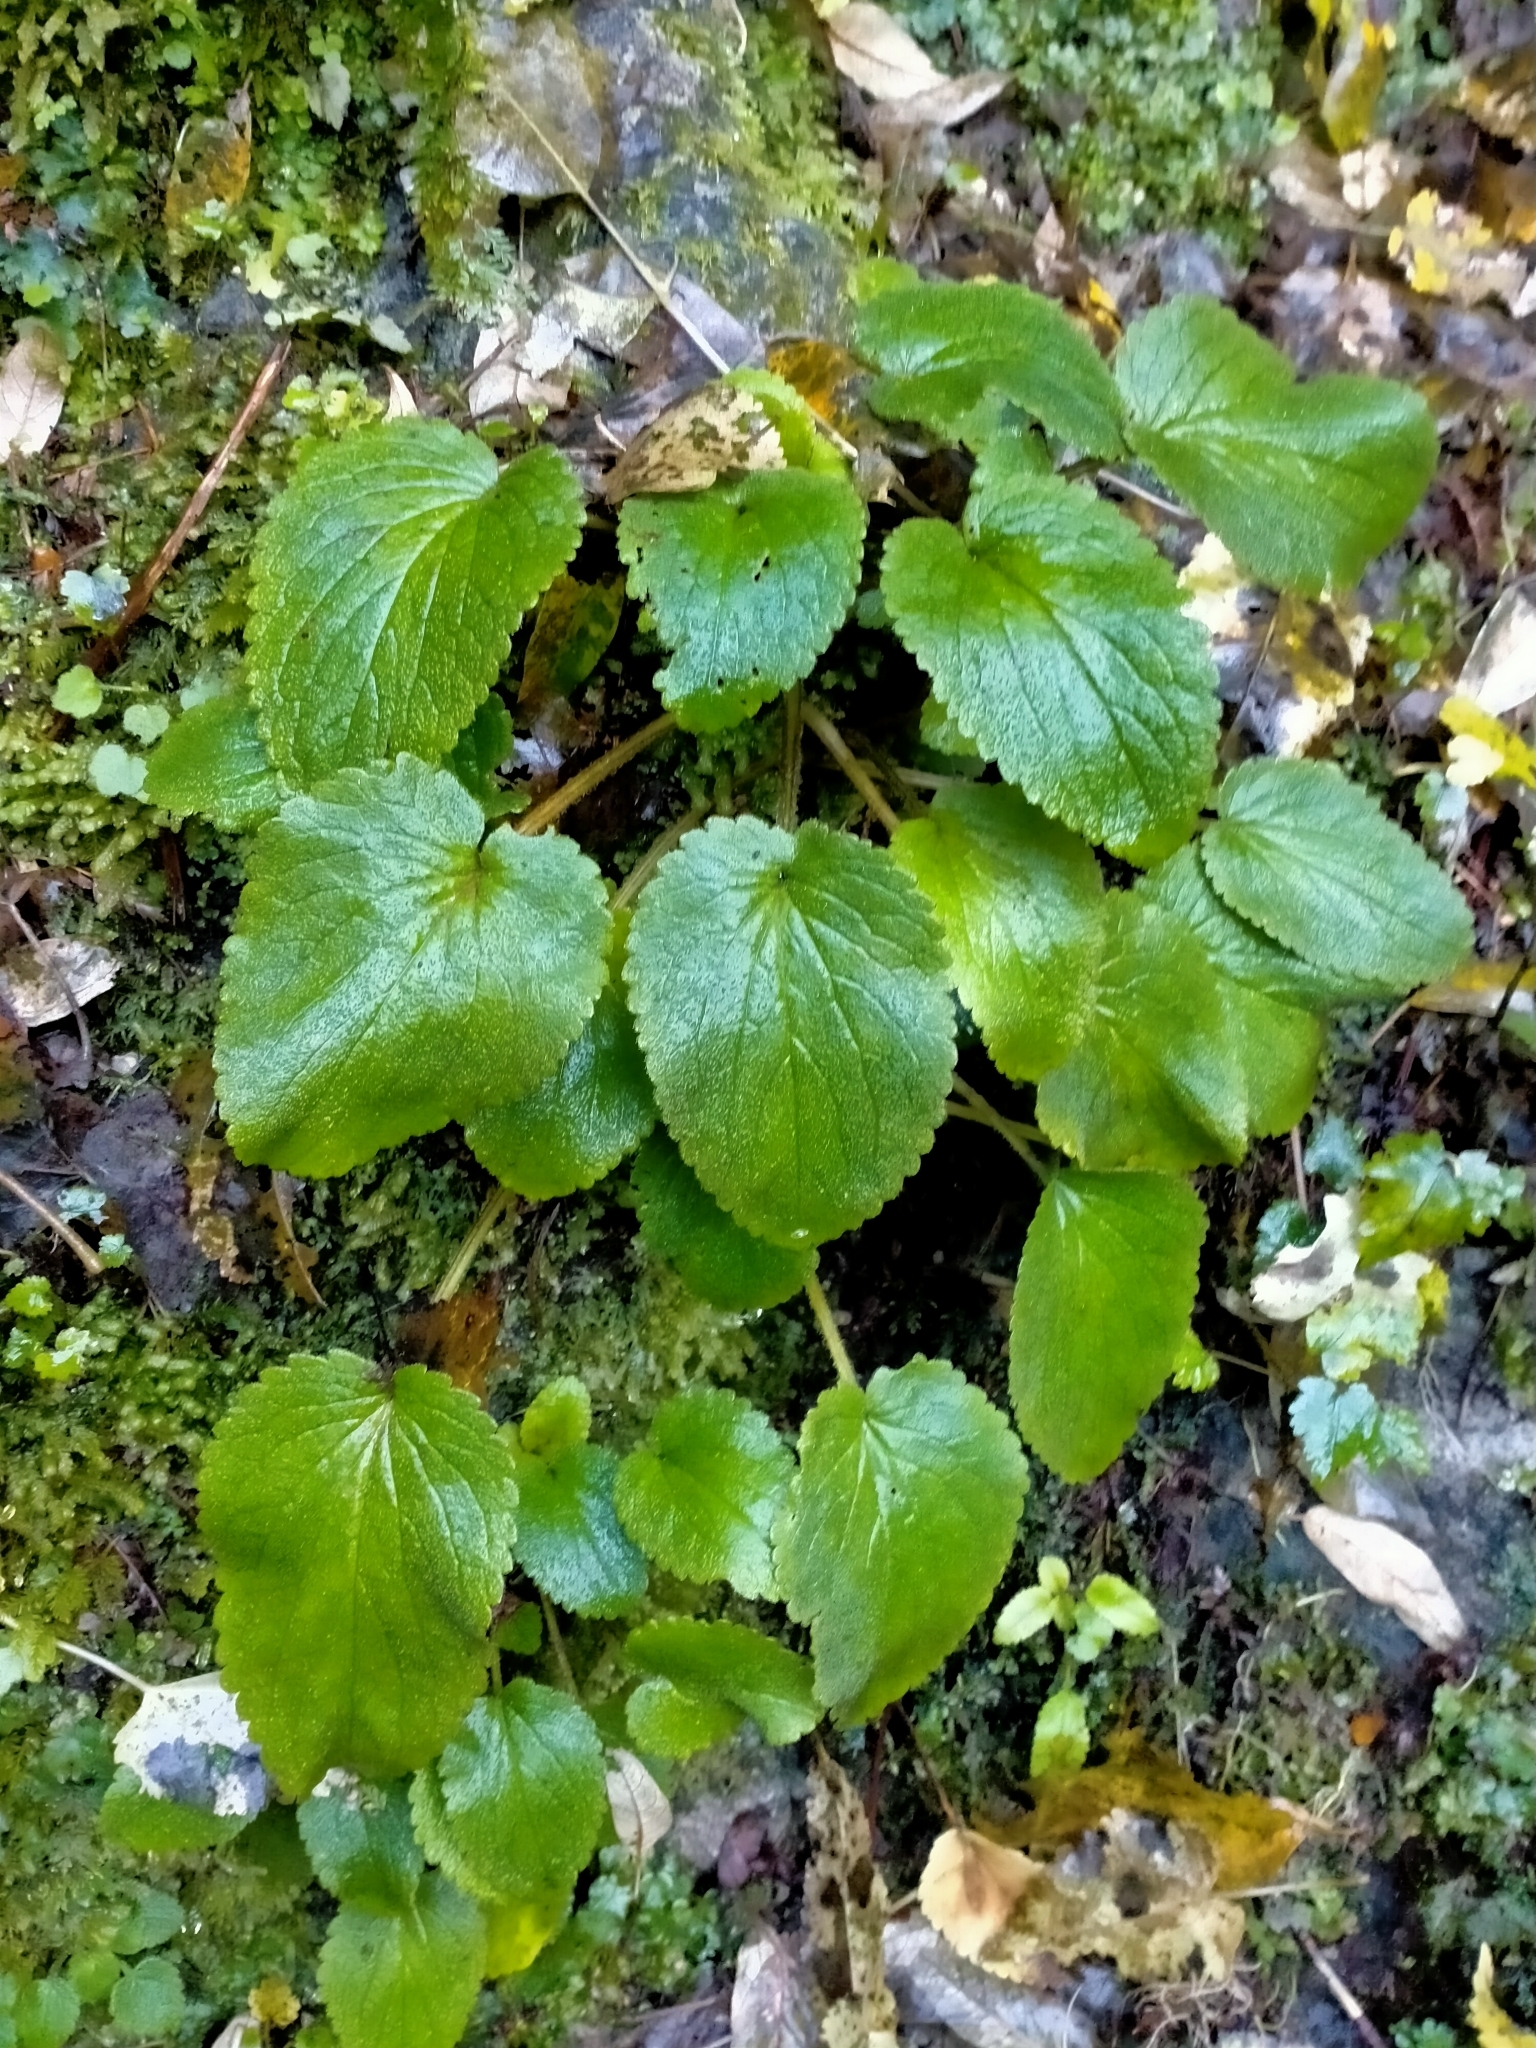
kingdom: Plantae
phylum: Tracheophyta
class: Magnoliopsida
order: Lamiales
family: Plantaginaceae
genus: Ourisia
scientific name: Ourisia macrocarpa
